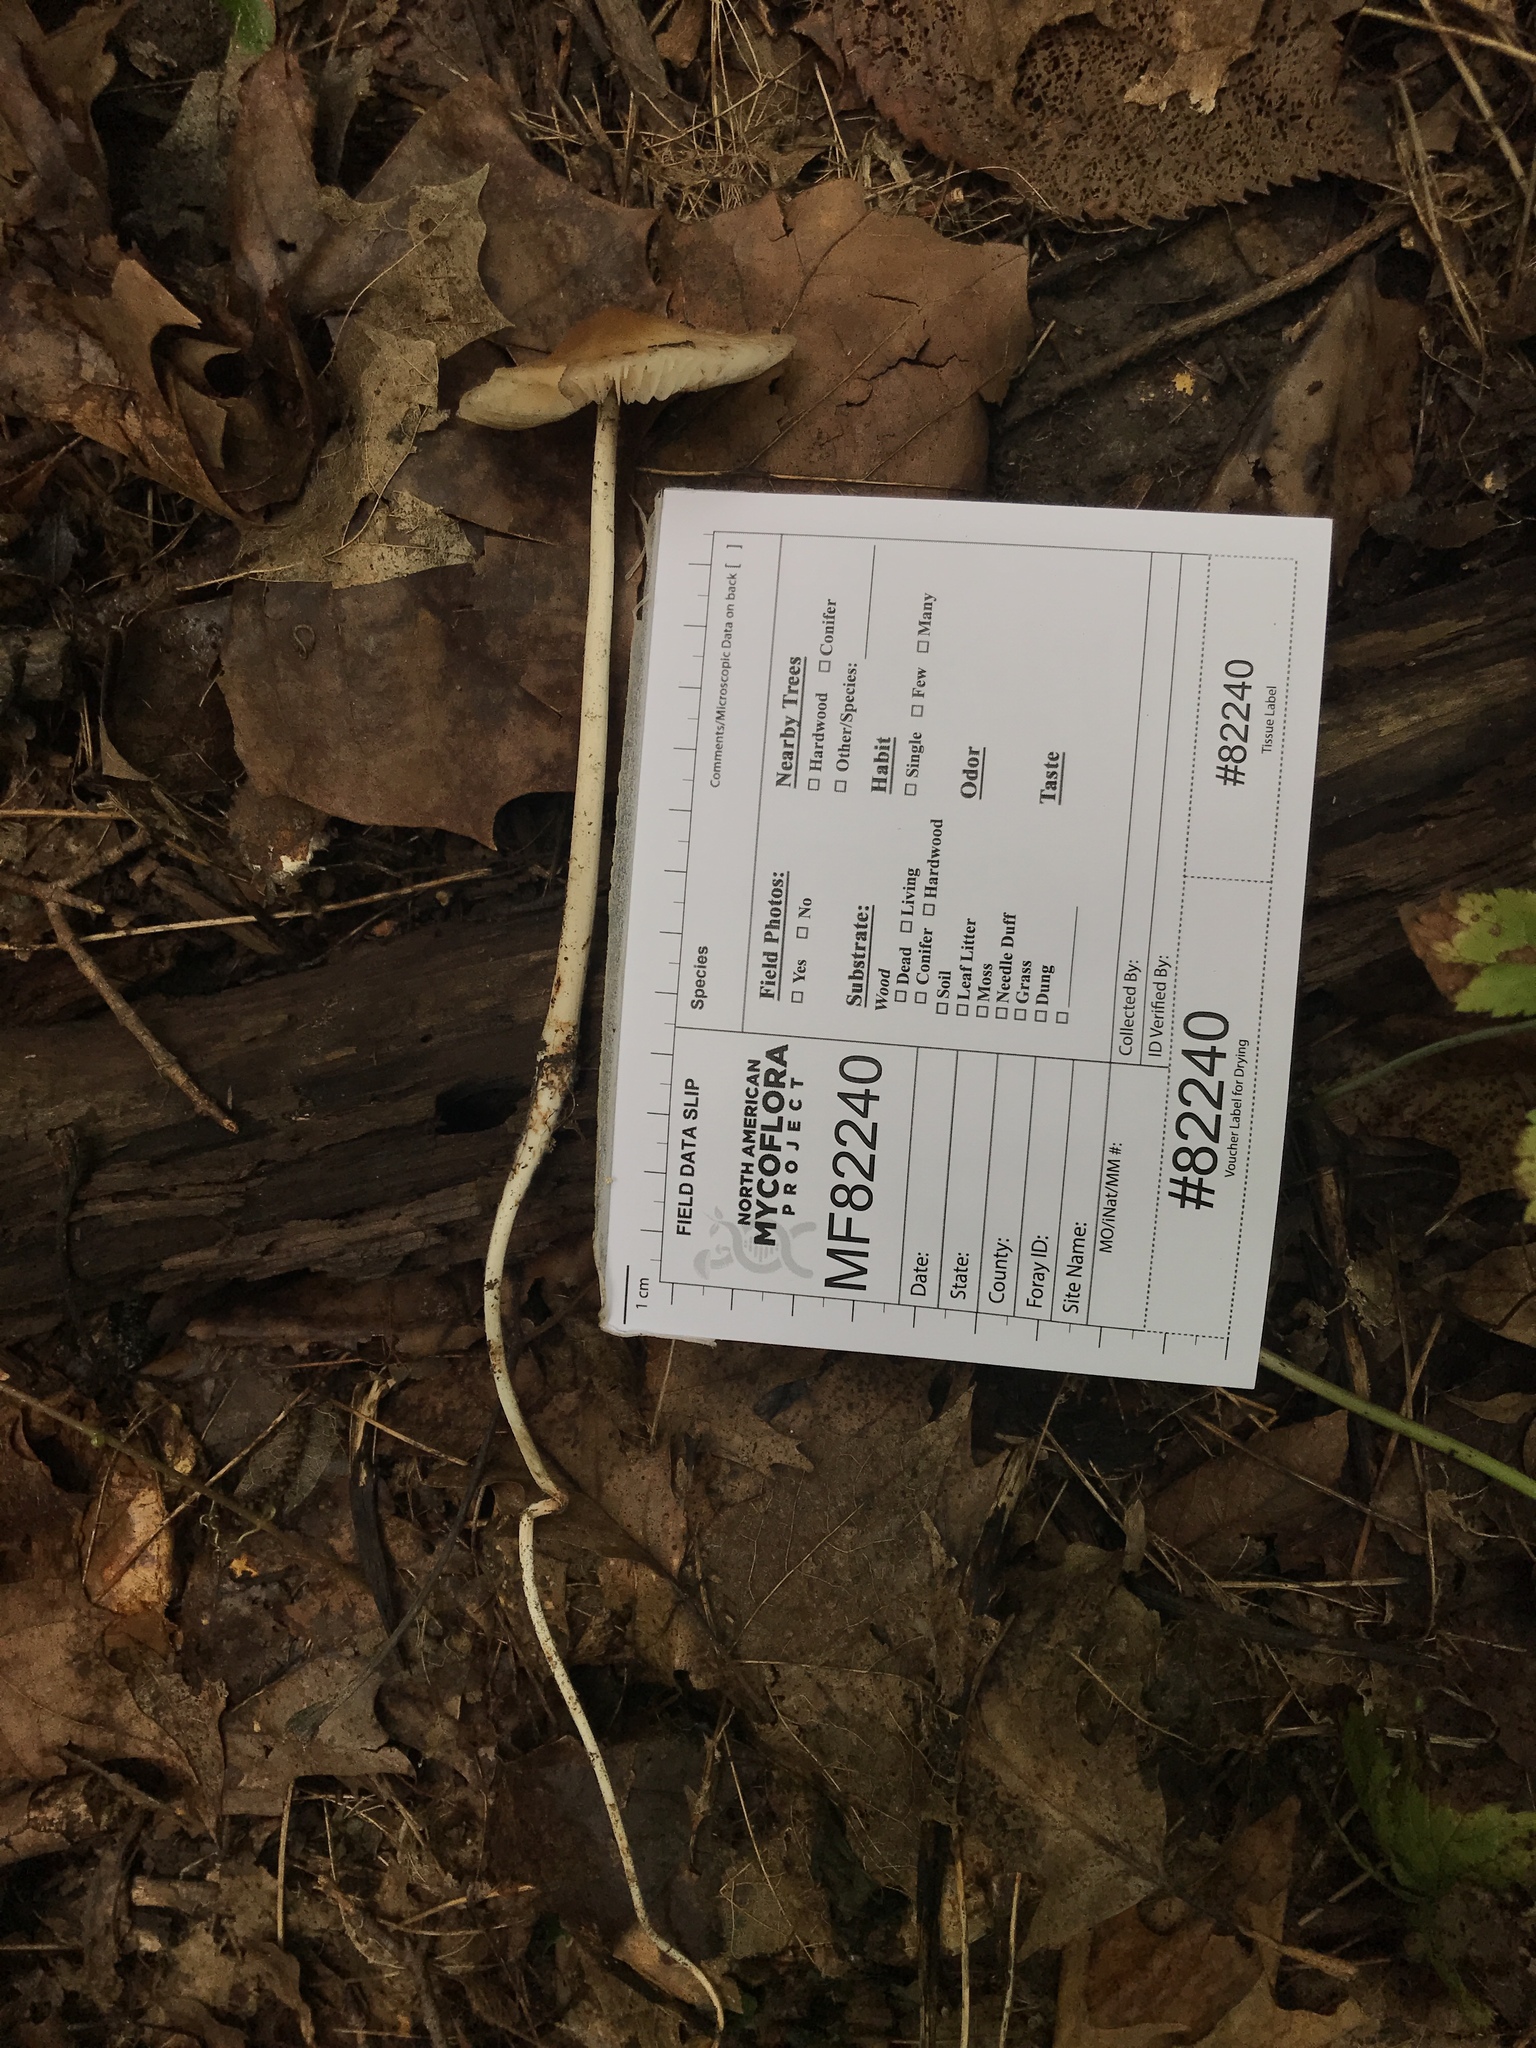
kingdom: Fungi
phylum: Basidiomycota
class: Agaricomycetes
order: Agaricales
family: Physalacriaceae
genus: Hymenopellis
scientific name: Hymenopellis limonispora
